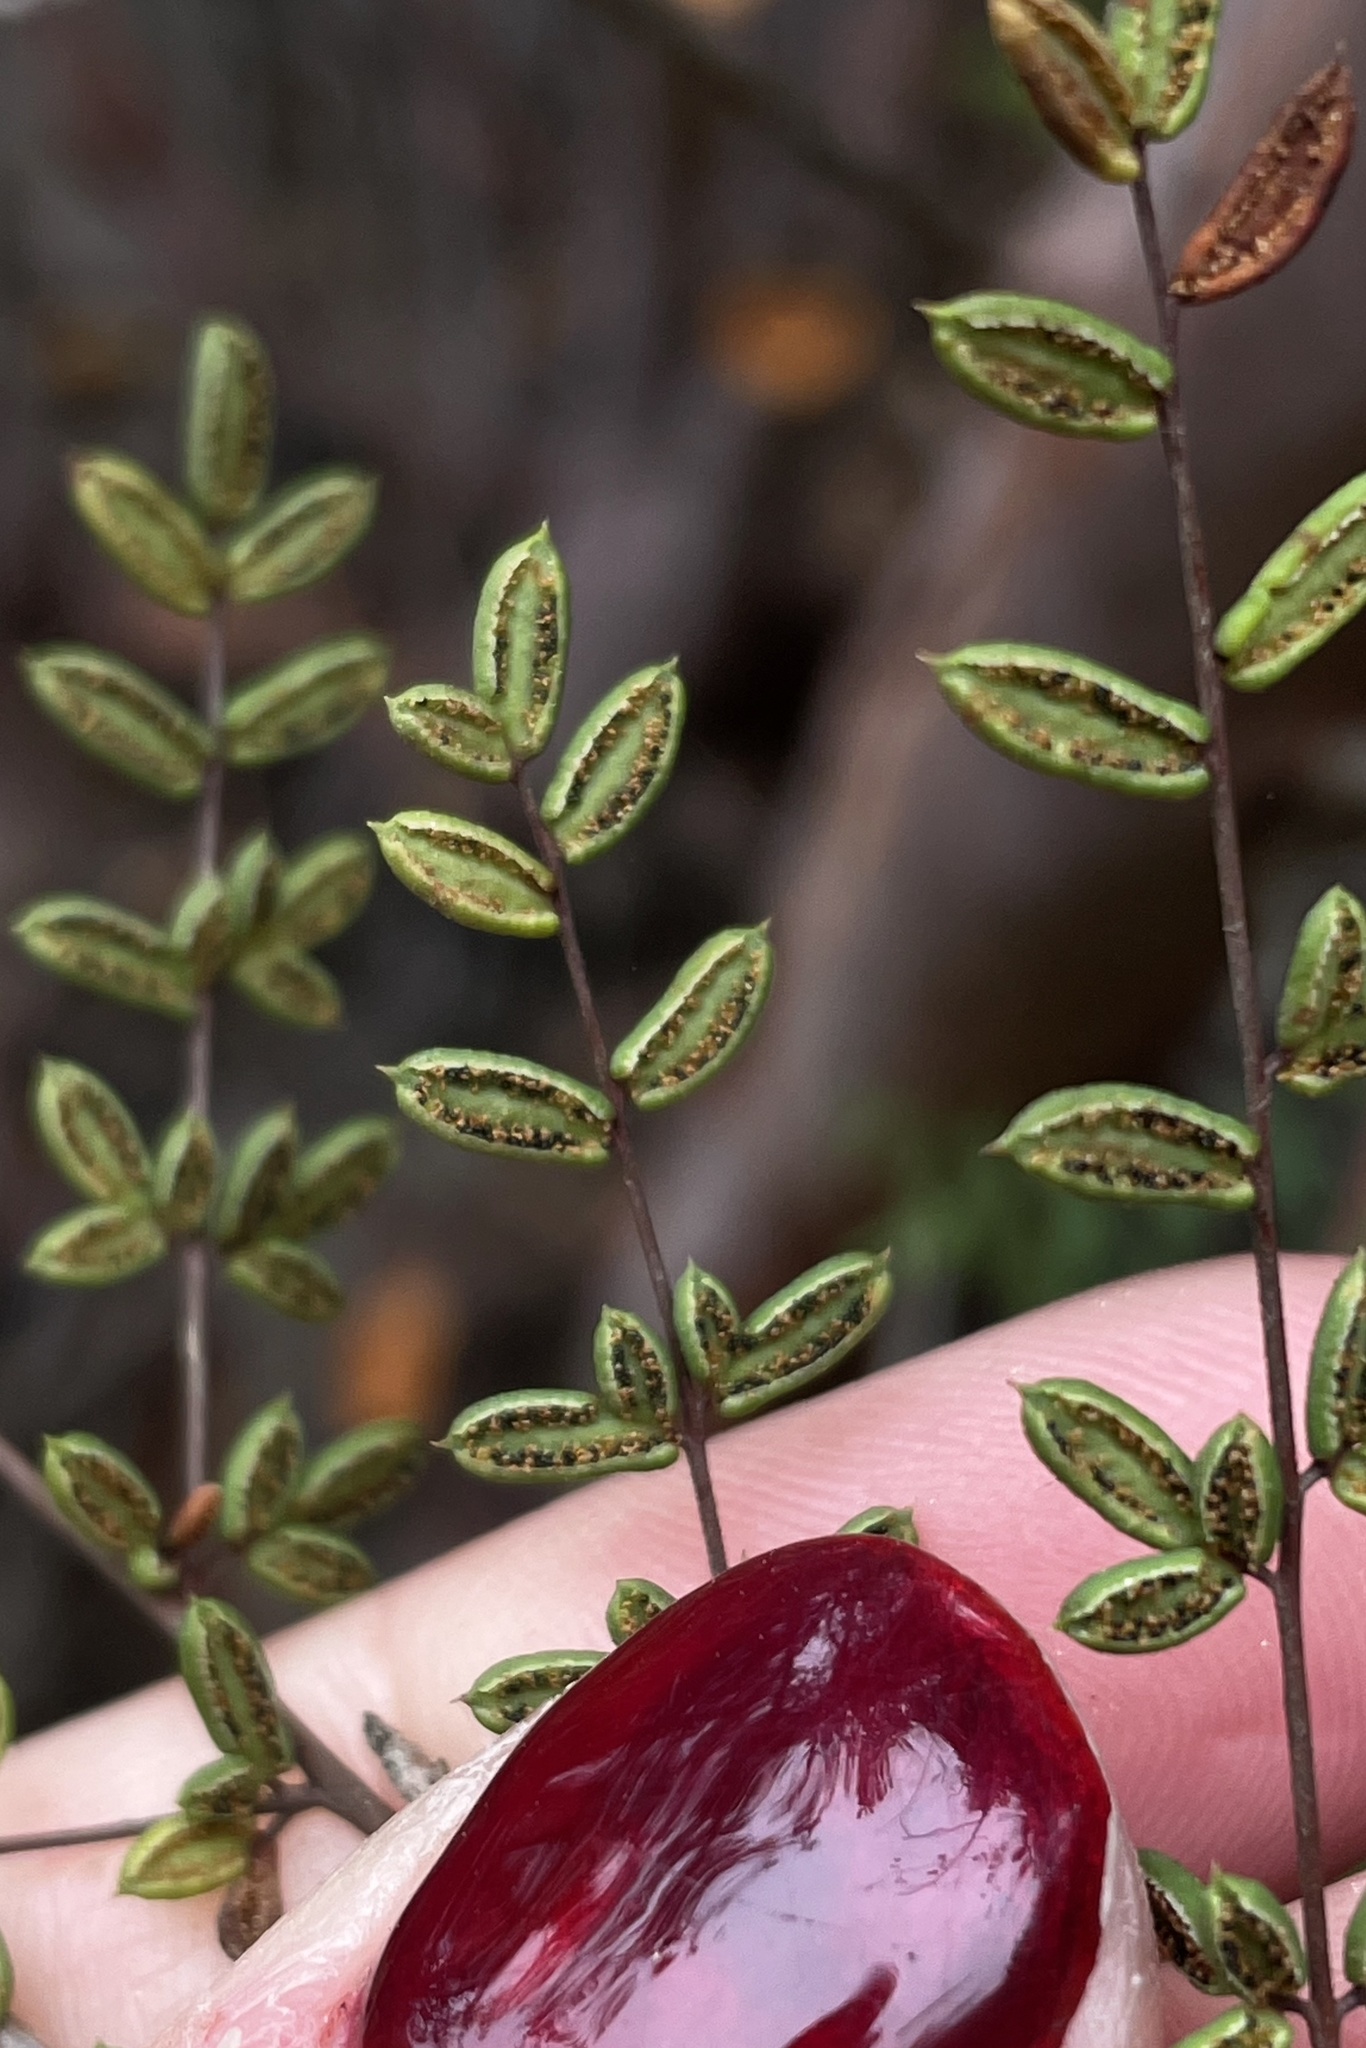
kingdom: Plantae
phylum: Tracheophyta
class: Polypodiopsida
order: Polypodiales
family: Pteridaceae
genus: Pellaea
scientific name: Pellaea mucronata
